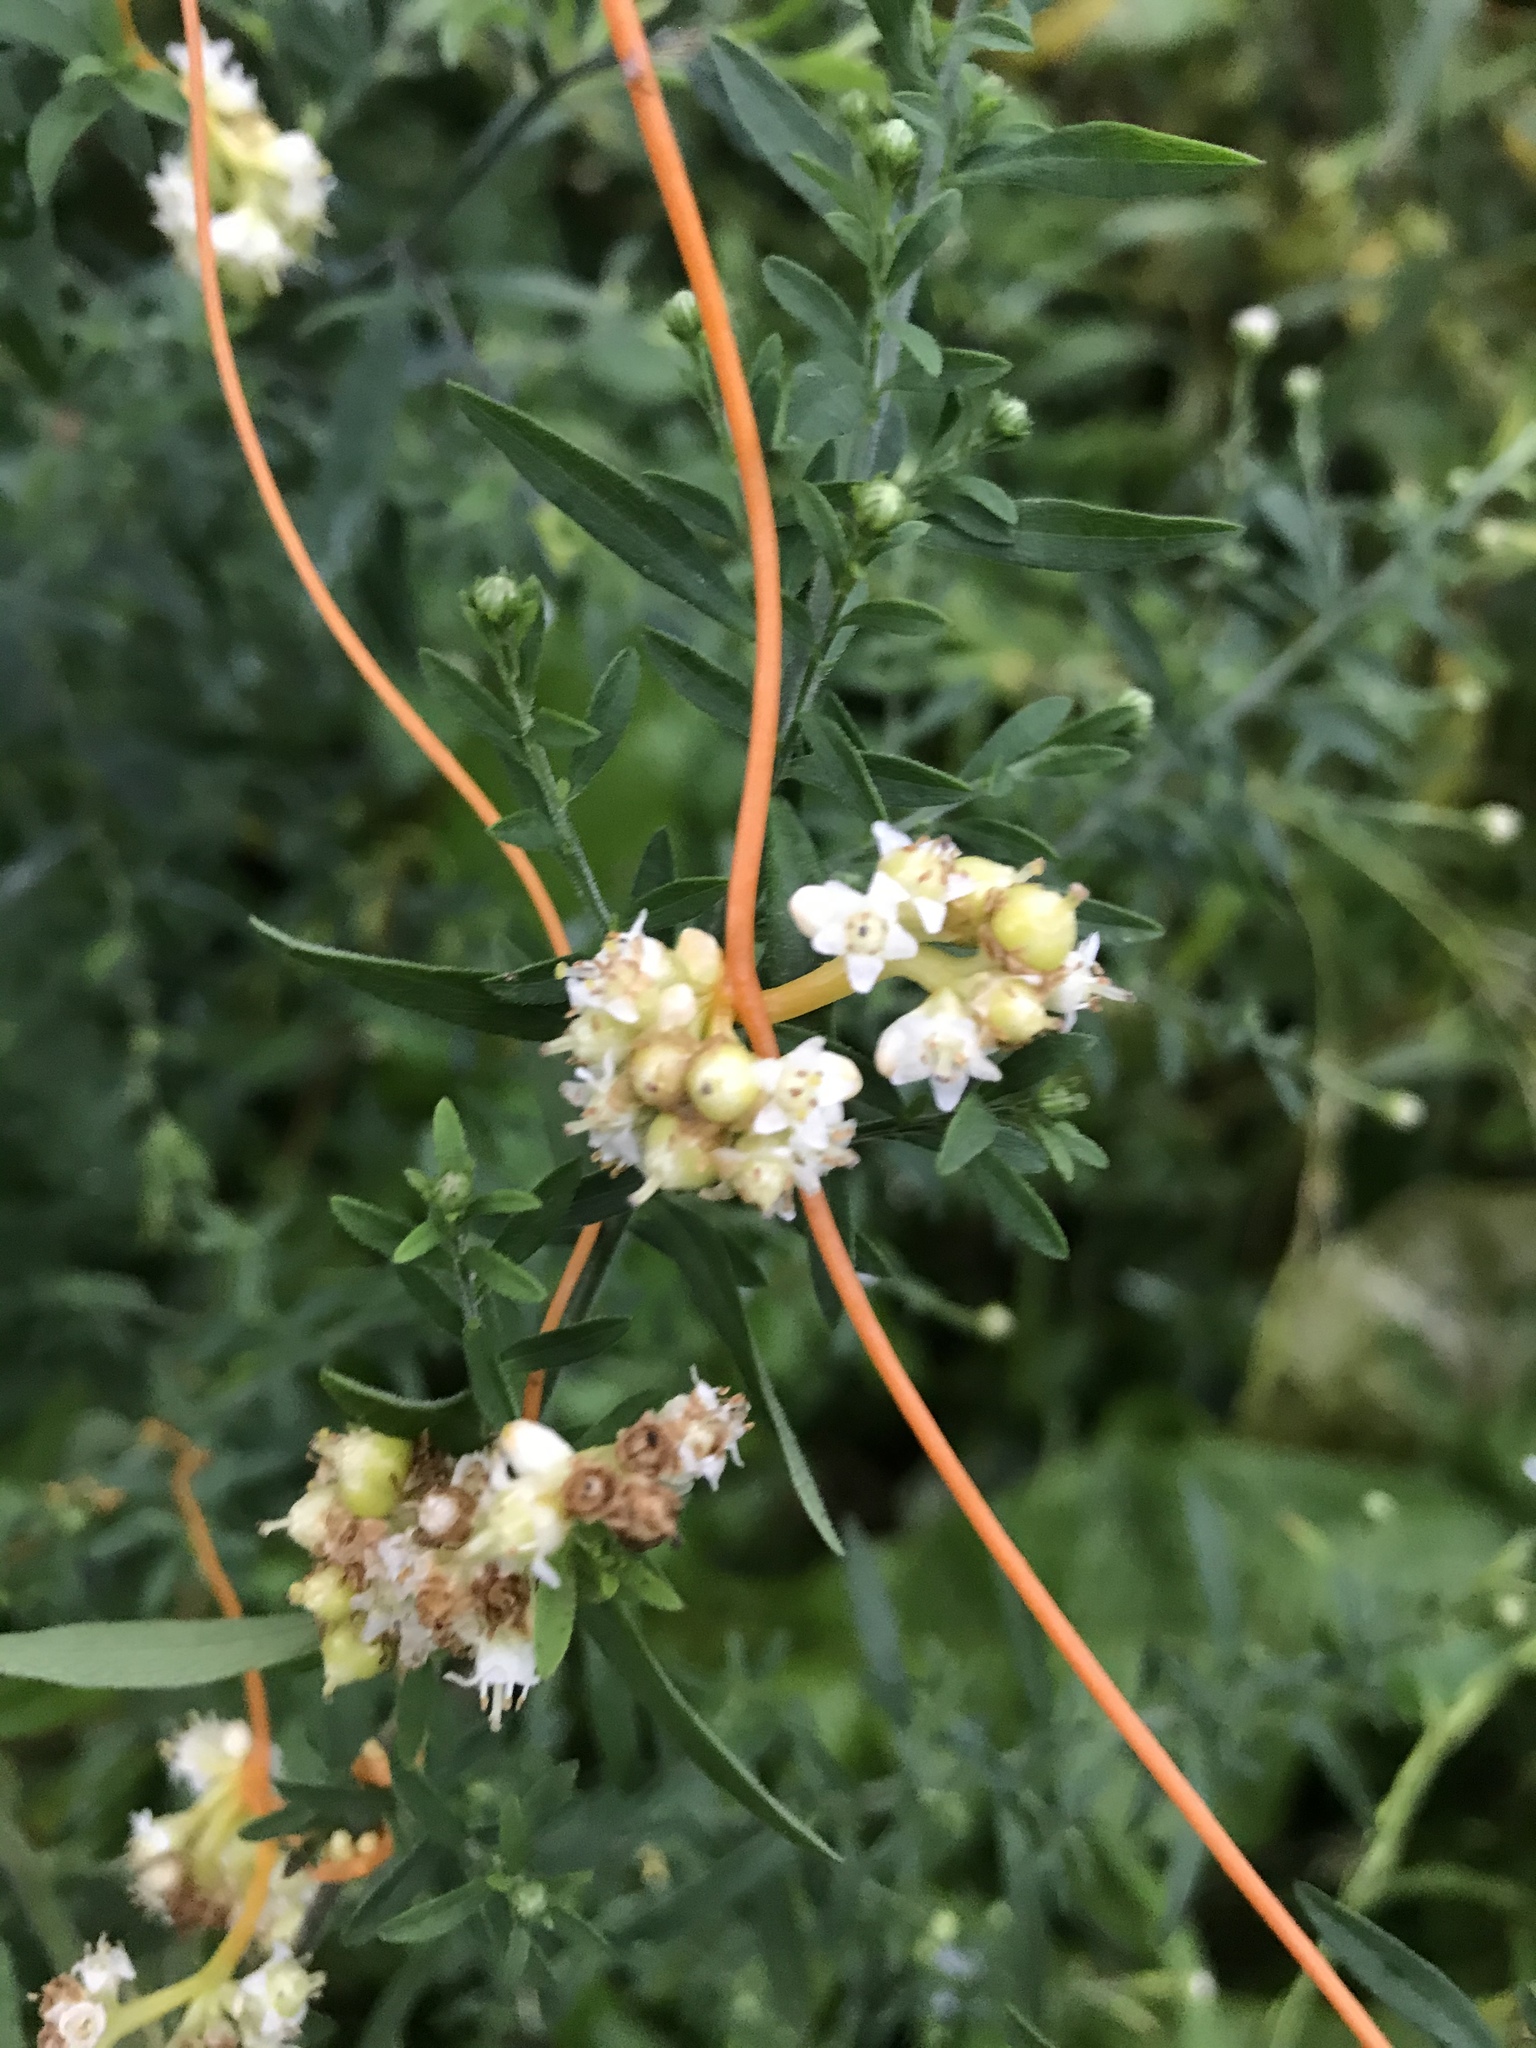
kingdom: Plantae
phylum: Tracheophyta
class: Magnoliopsida
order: Solanales
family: Convolvulaceae
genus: Cuscuta
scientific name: Cuscuta gronovii
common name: Common dodder
